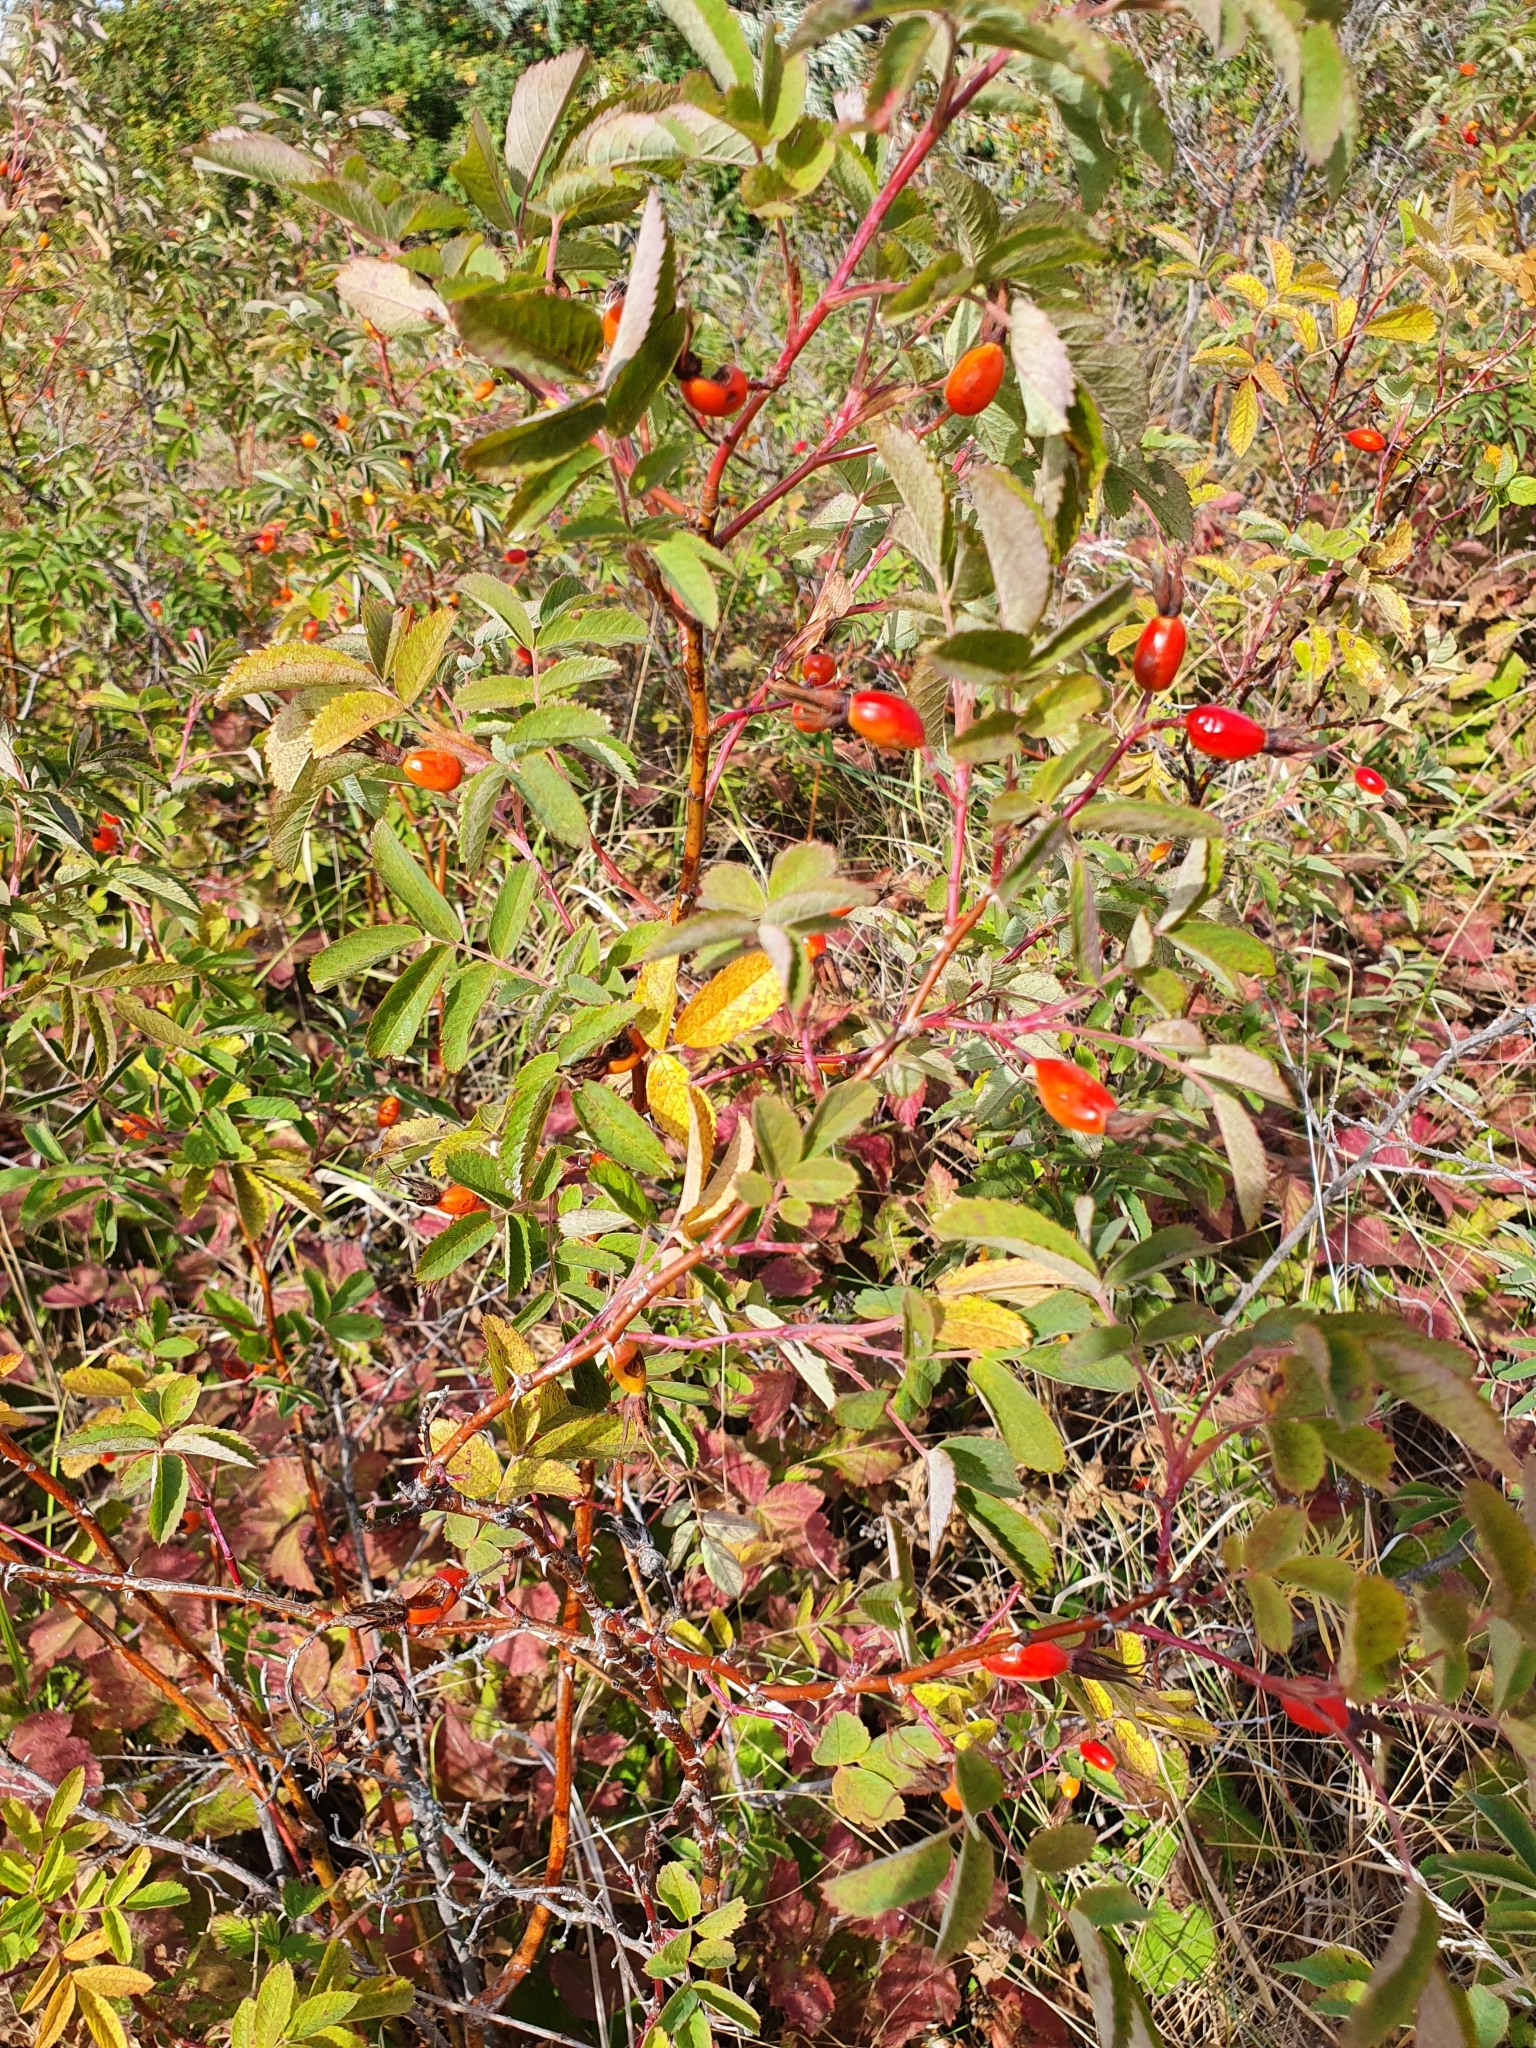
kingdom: Plantae
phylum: Tracheophyta
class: Magnoliopsida
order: Rosales
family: Rosaceae
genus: Rosa
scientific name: Rosa majalis
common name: Cinnamon rose
